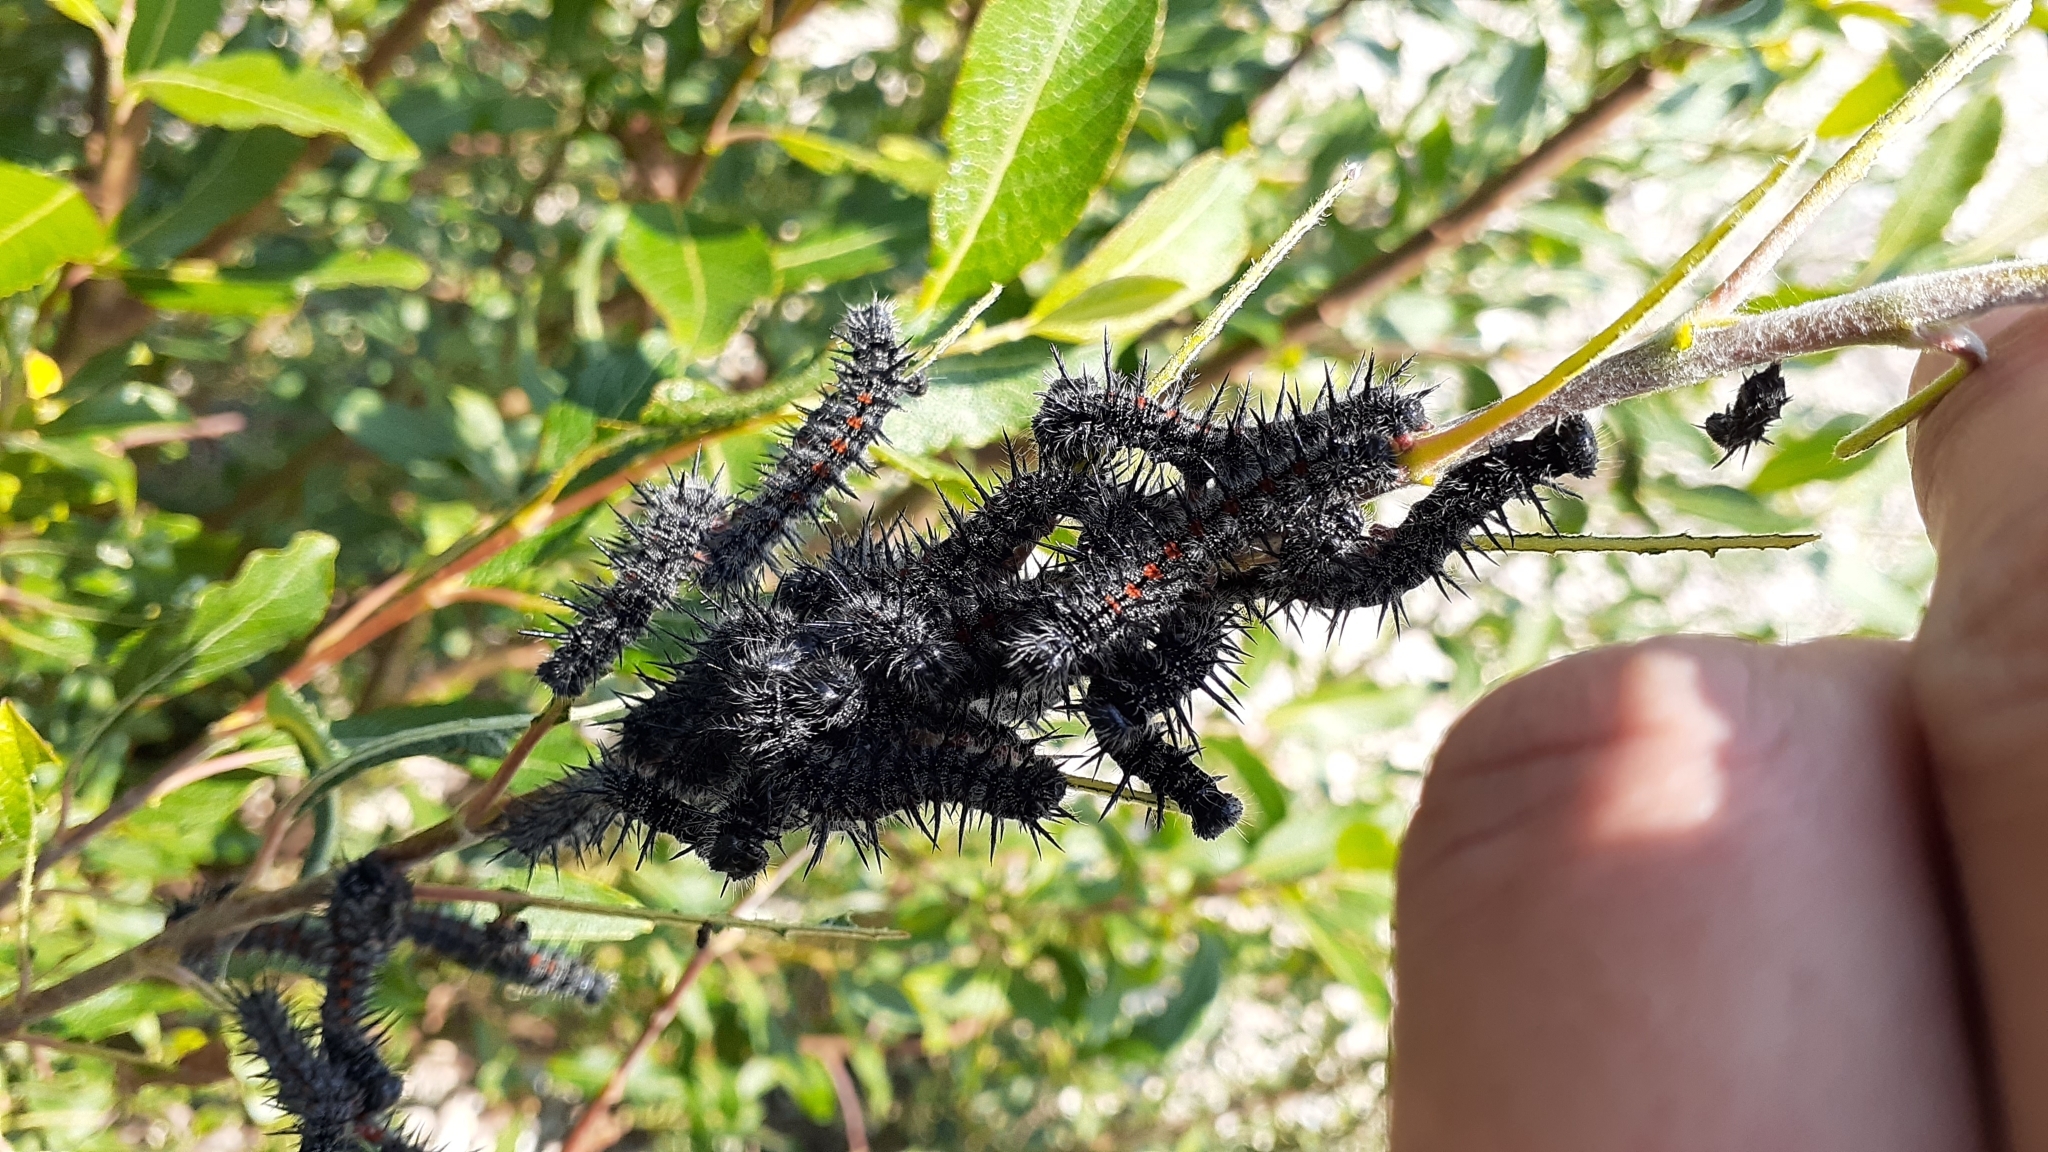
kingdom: Animalia
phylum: Arthropoda
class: Insecta
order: Lepidoptera
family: Nymphalidae
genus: Nymphalis
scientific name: Nymphalis antiopa
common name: Camberwell beauty
